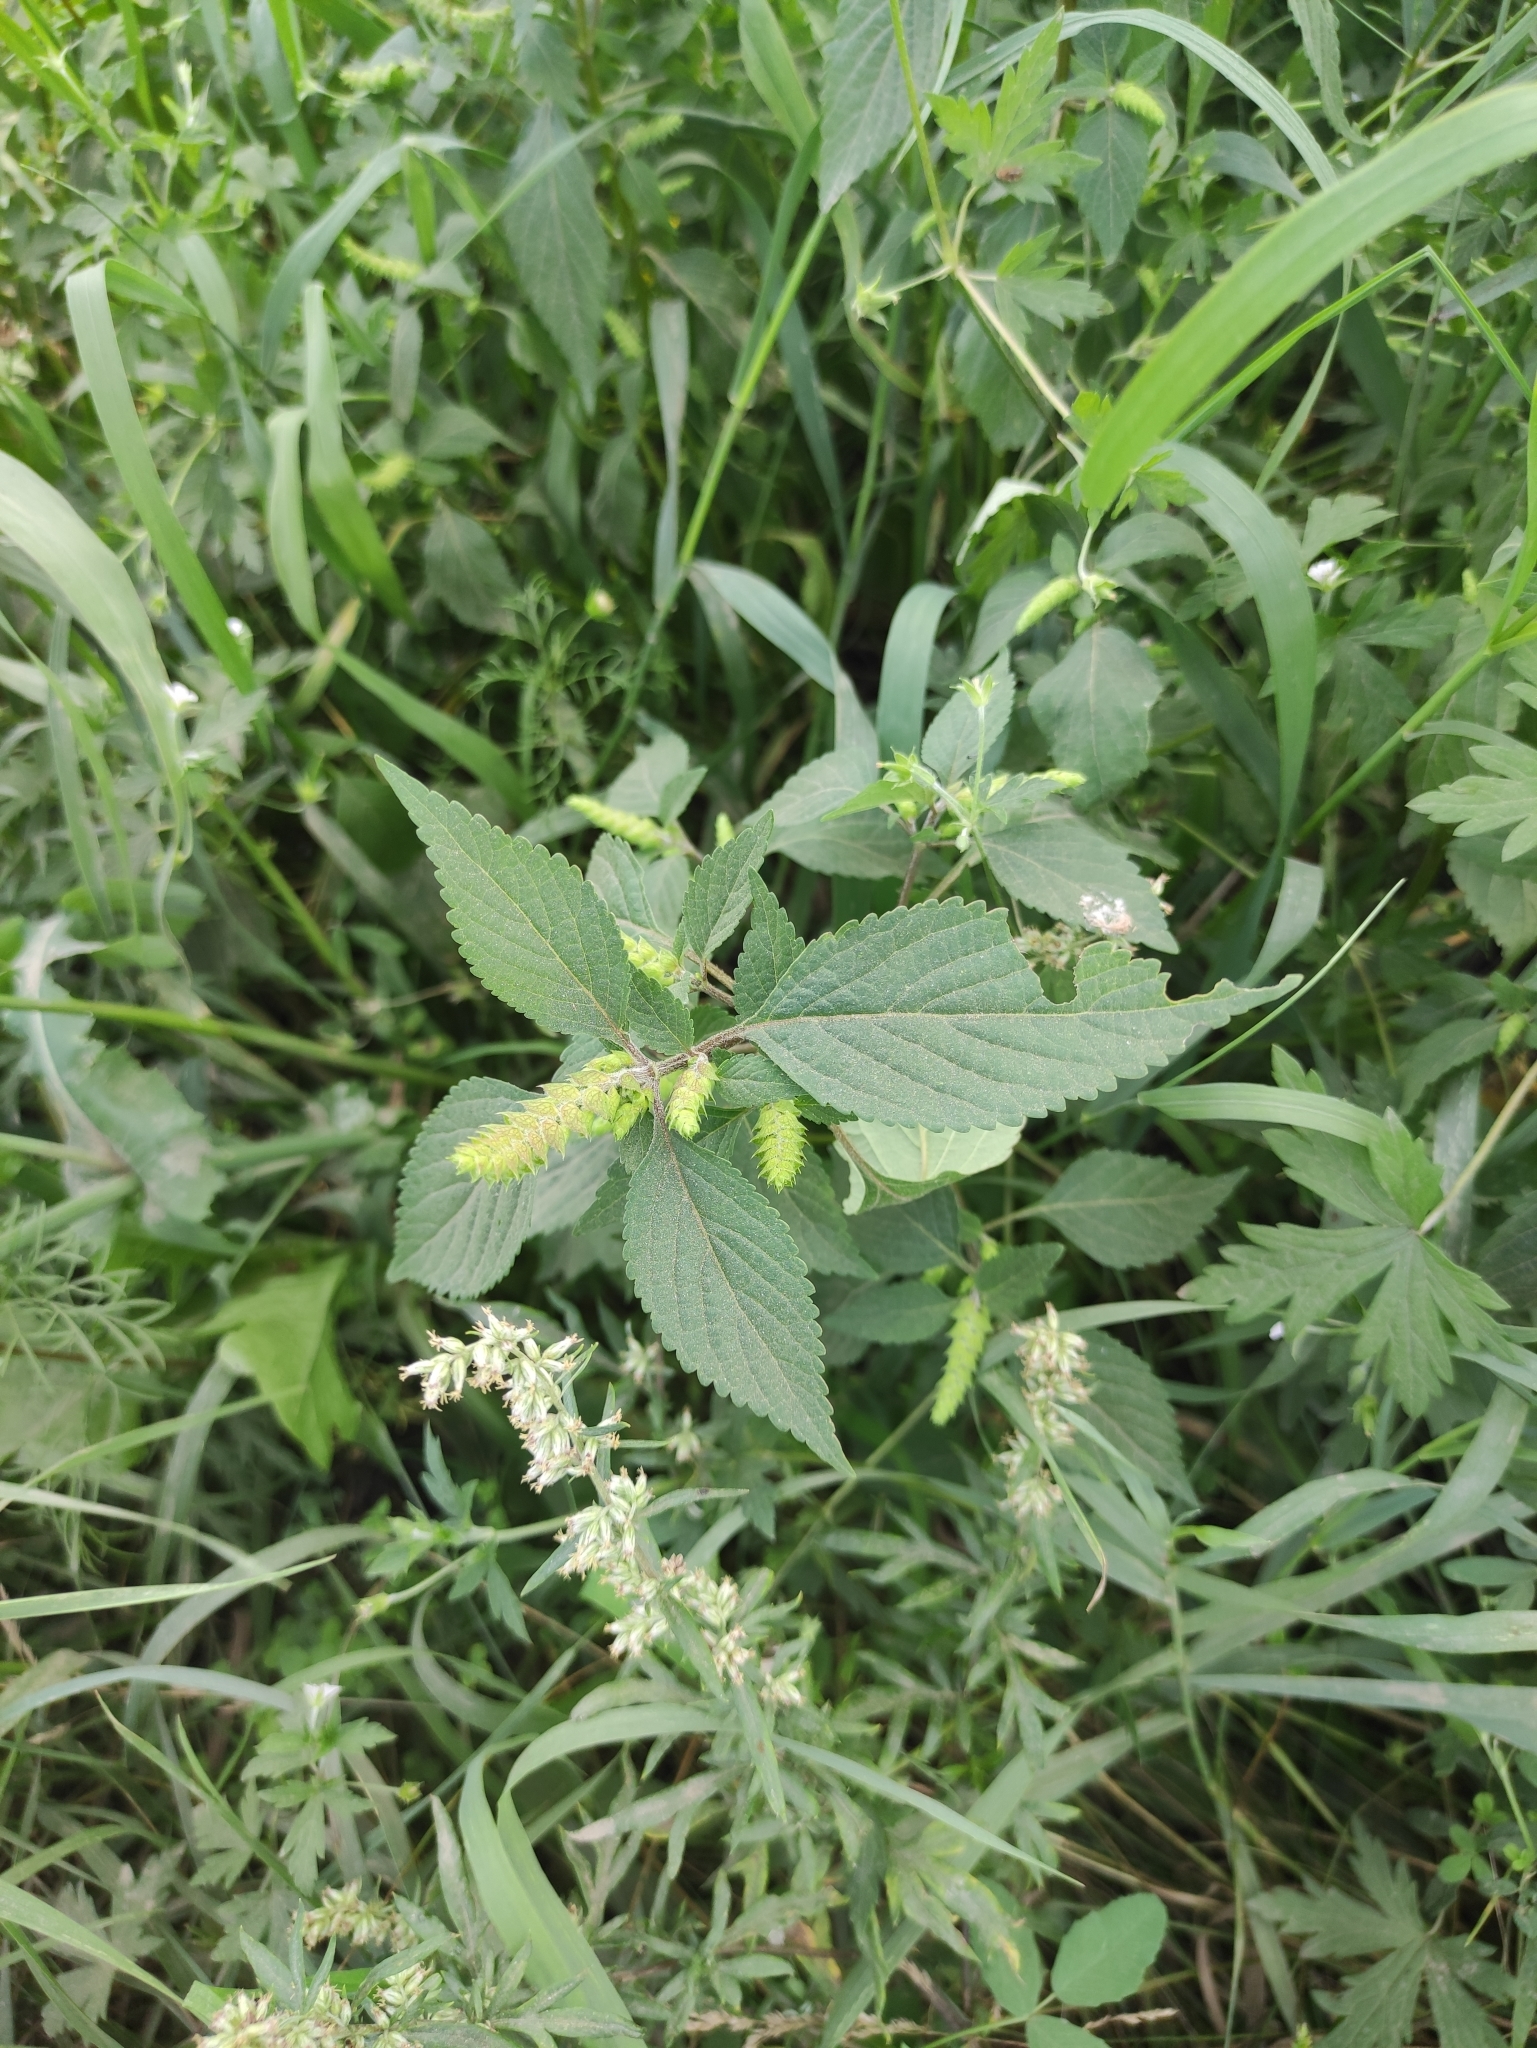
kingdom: Plantae
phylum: Tracheophyta
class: Magnoliopsida
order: Lamiales
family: Lamiaceae
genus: Elsholtzia
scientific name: Elsholtzia ciliata
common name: Ciliate elsholtzia
